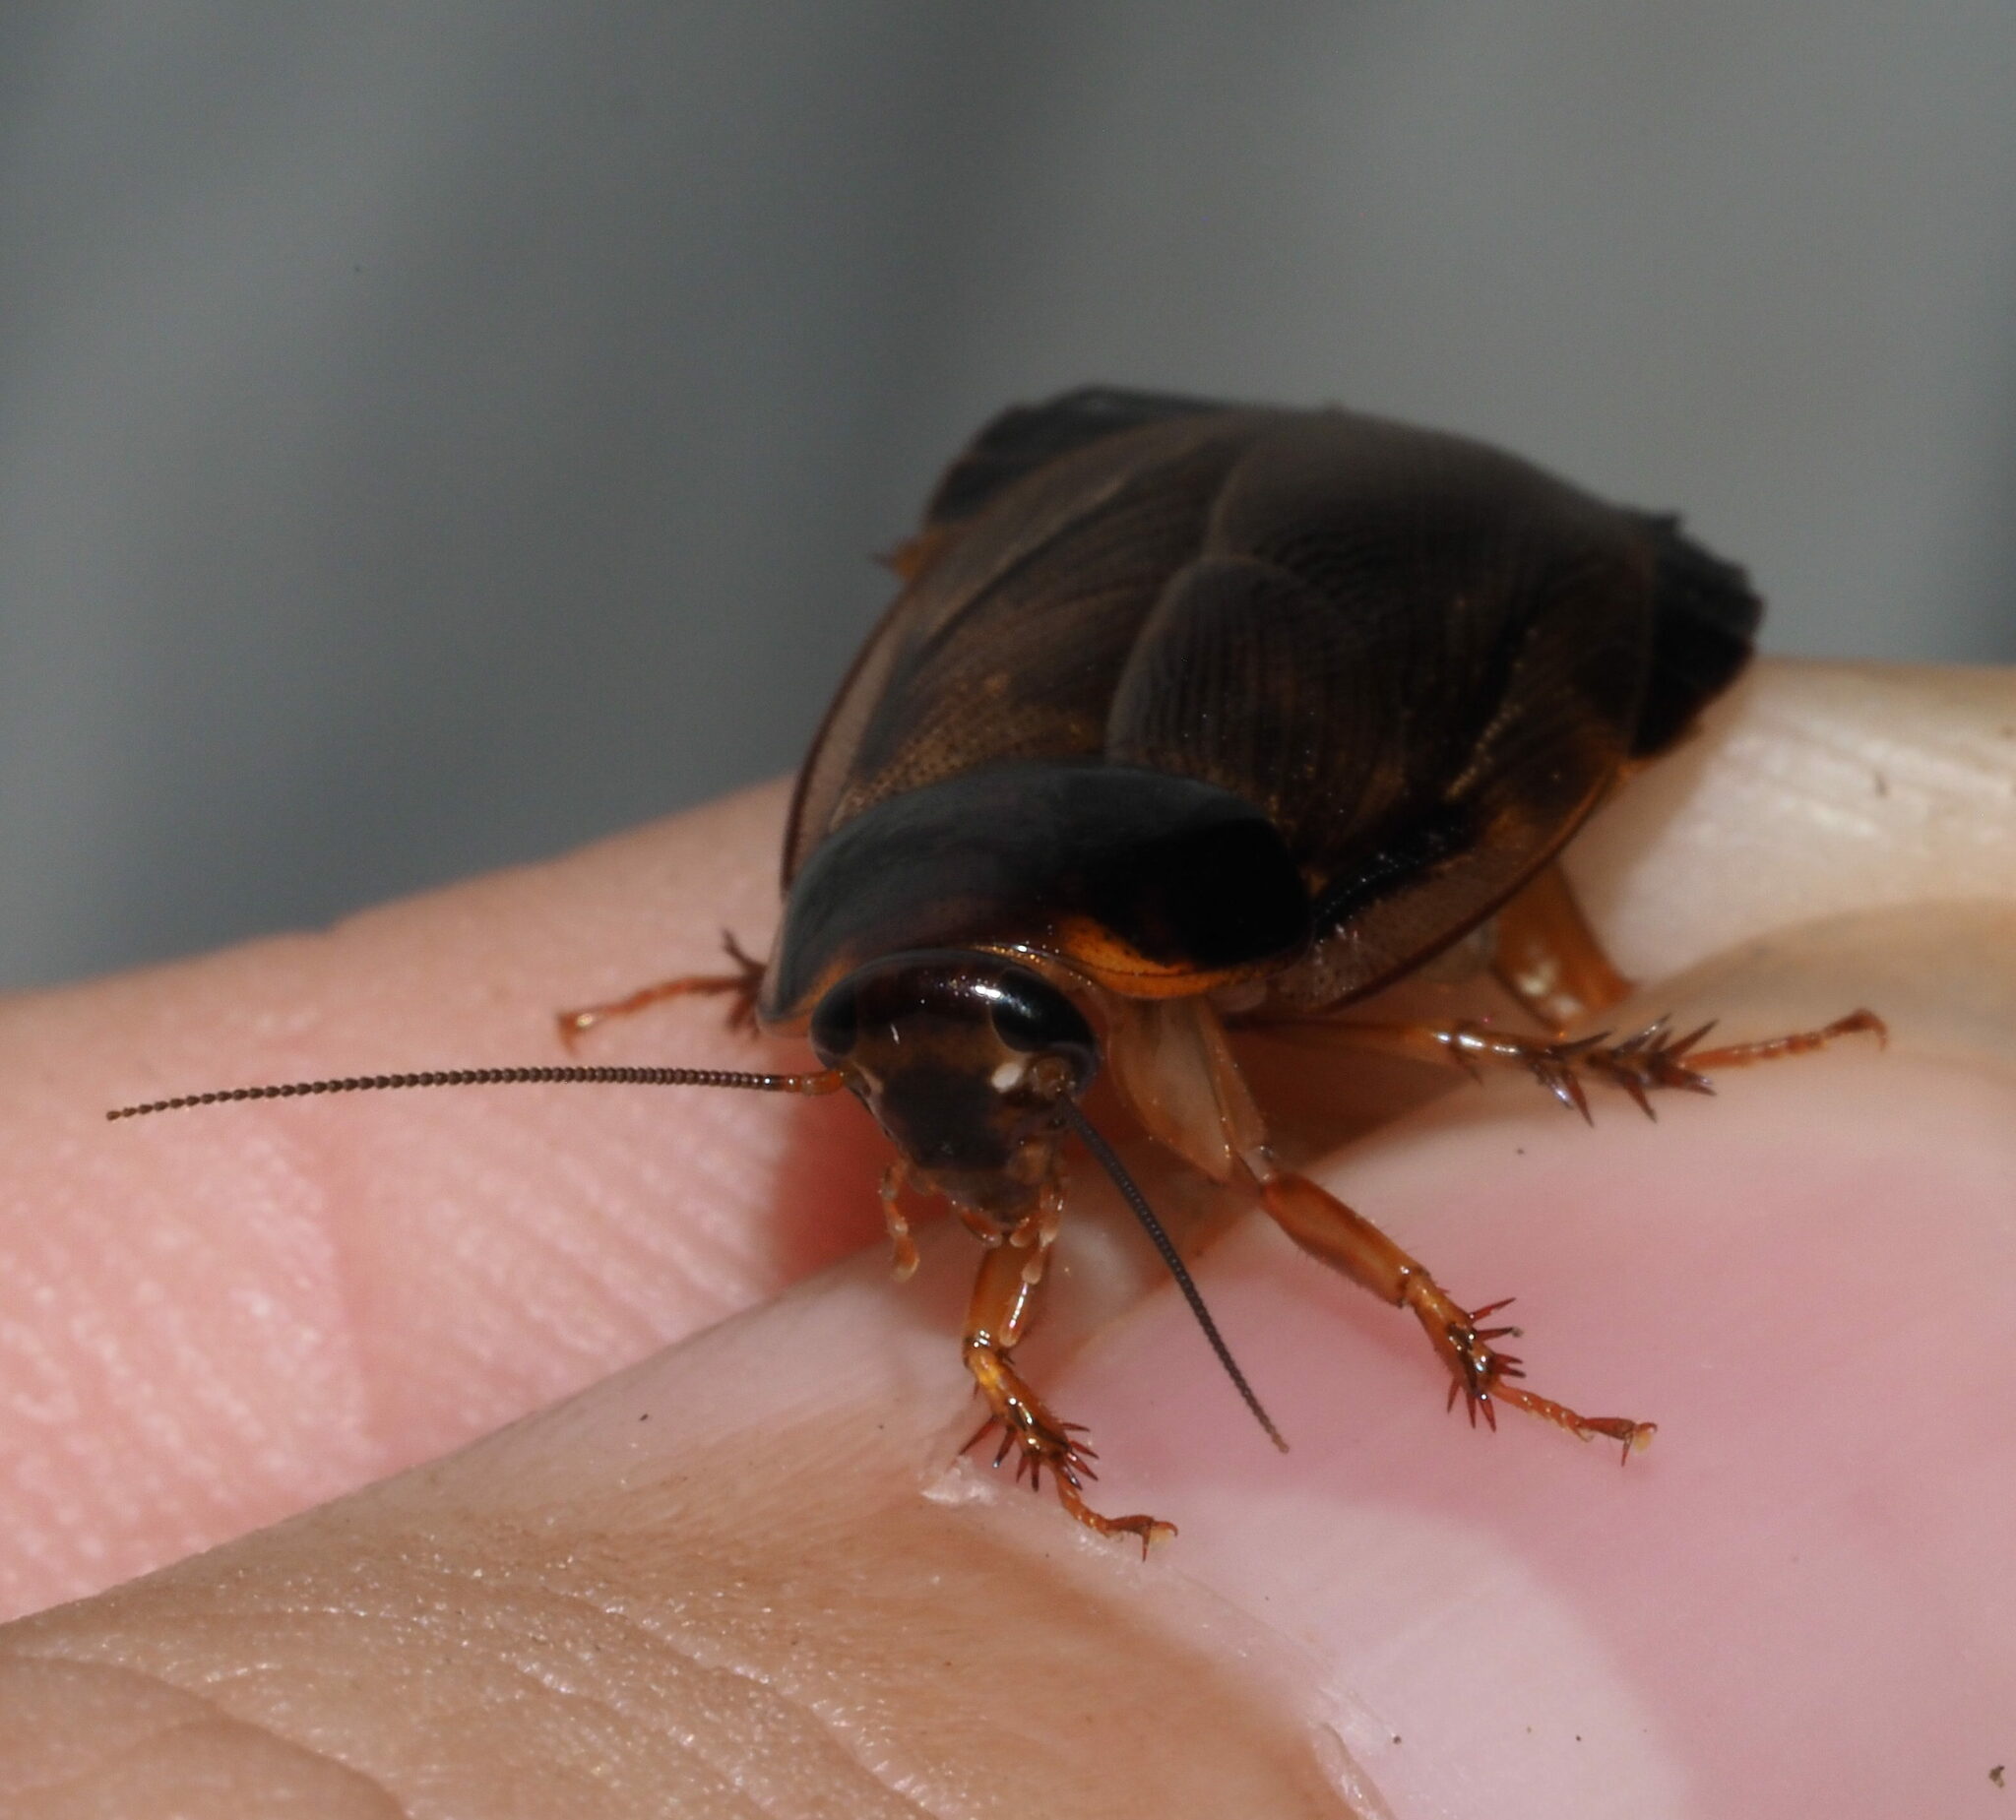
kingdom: Animalia
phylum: Arthropoda
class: Insecta
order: Blattodea
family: Blaberidae
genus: Pycnoscelus
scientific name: Pycnoscelus surinamensis
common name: Surinam cockroach
